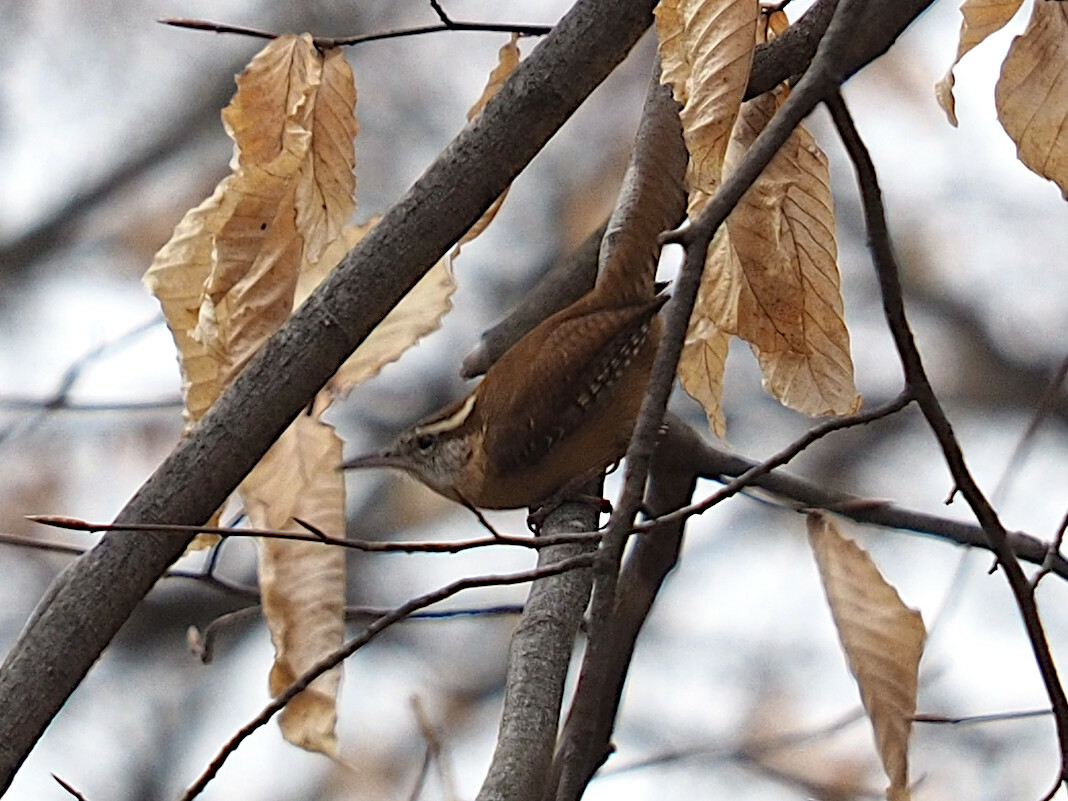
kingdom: Animalia
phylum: Chordata
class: Aves
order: Passeriformes
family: Troglodytidae
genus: Thryothorus
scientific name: Thryothorus ludovicianus
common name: Carolina wren
